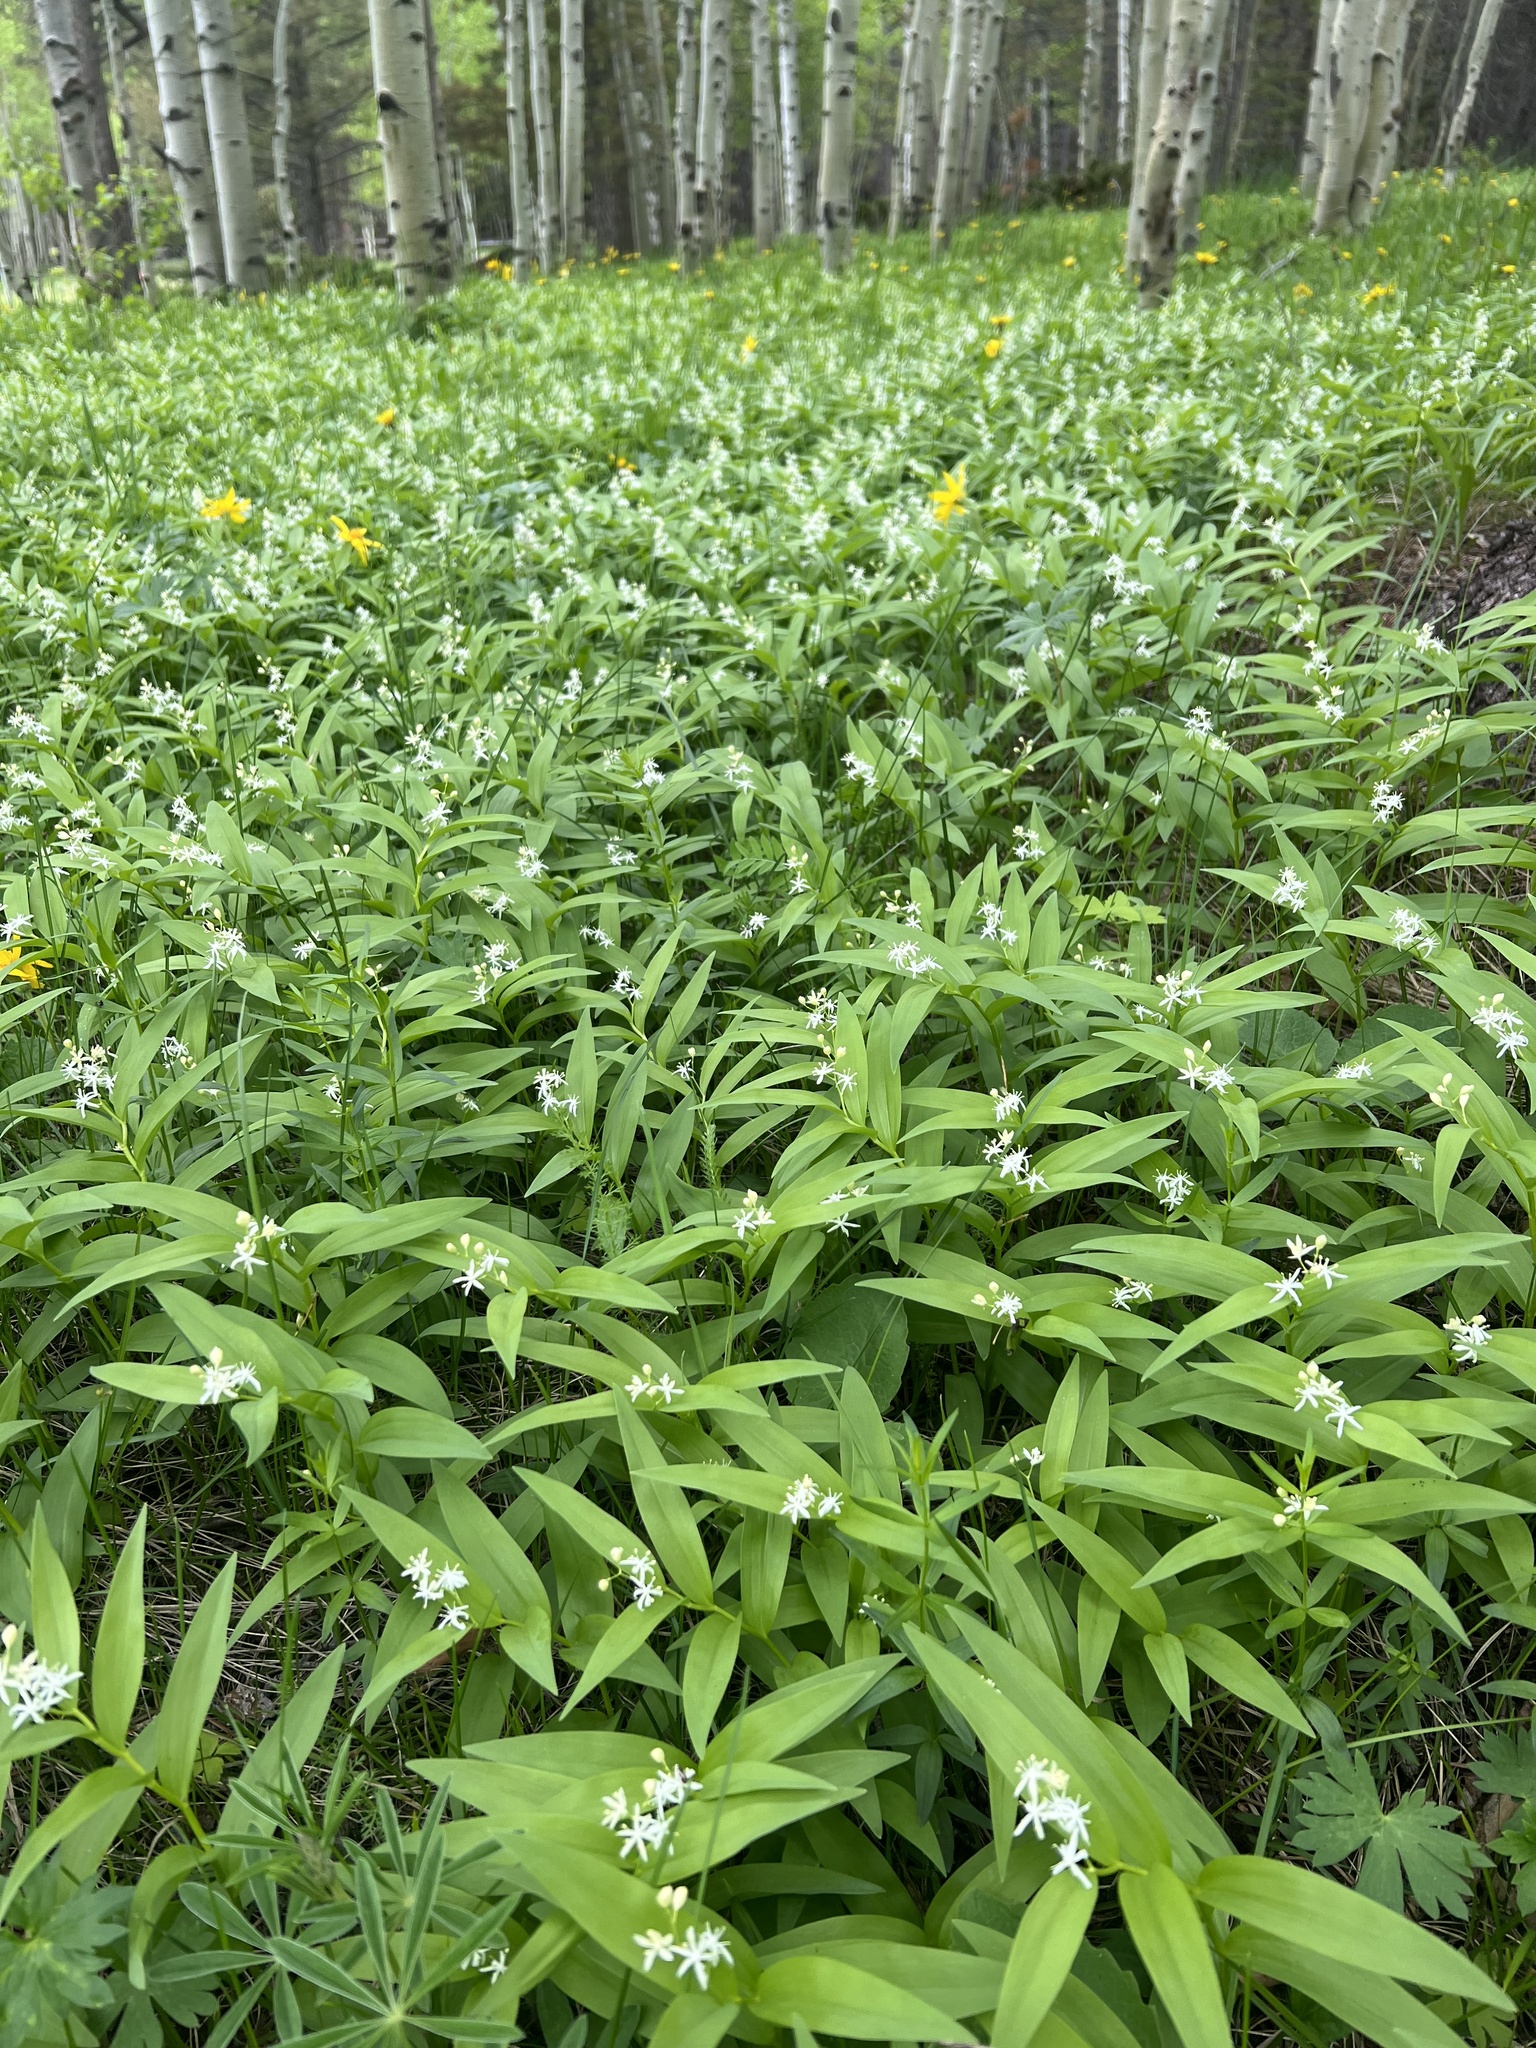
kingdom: Plantae
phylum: Tracheophyta
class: Liliopsida
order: Asparagales
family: Asparagaceae
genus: Maianthemum
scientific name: Maianthemum stellatum
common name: Little false solomon's seal
